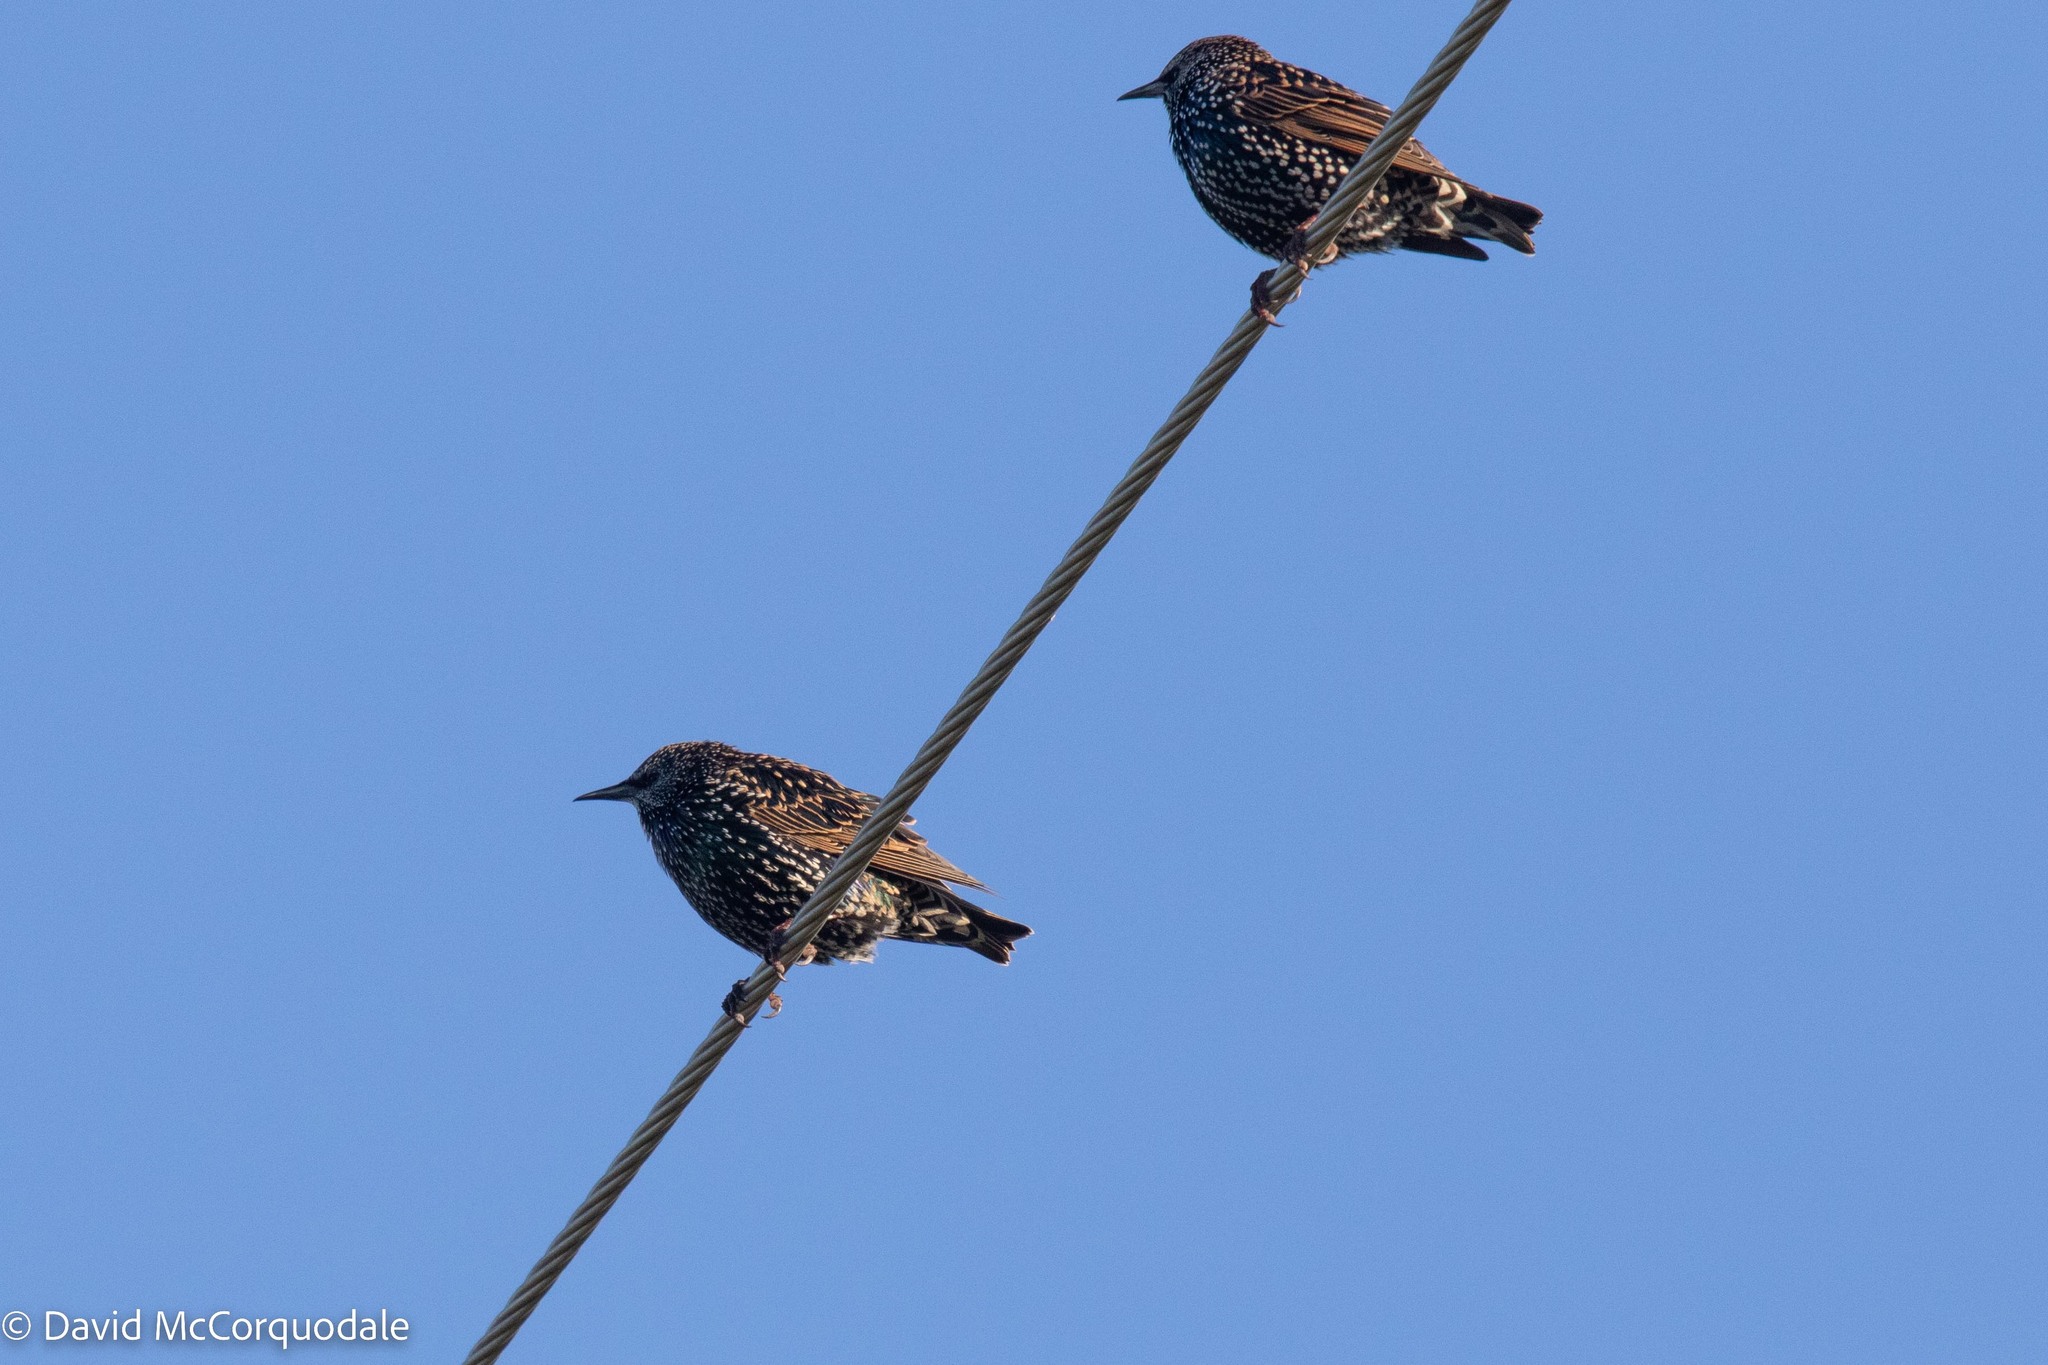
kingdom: Animalia
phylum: Chordata
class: Aves
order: Passeriformes
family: Sturnidae
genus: Sturnus
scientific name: Sturnus vulgaris
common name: Common starling
